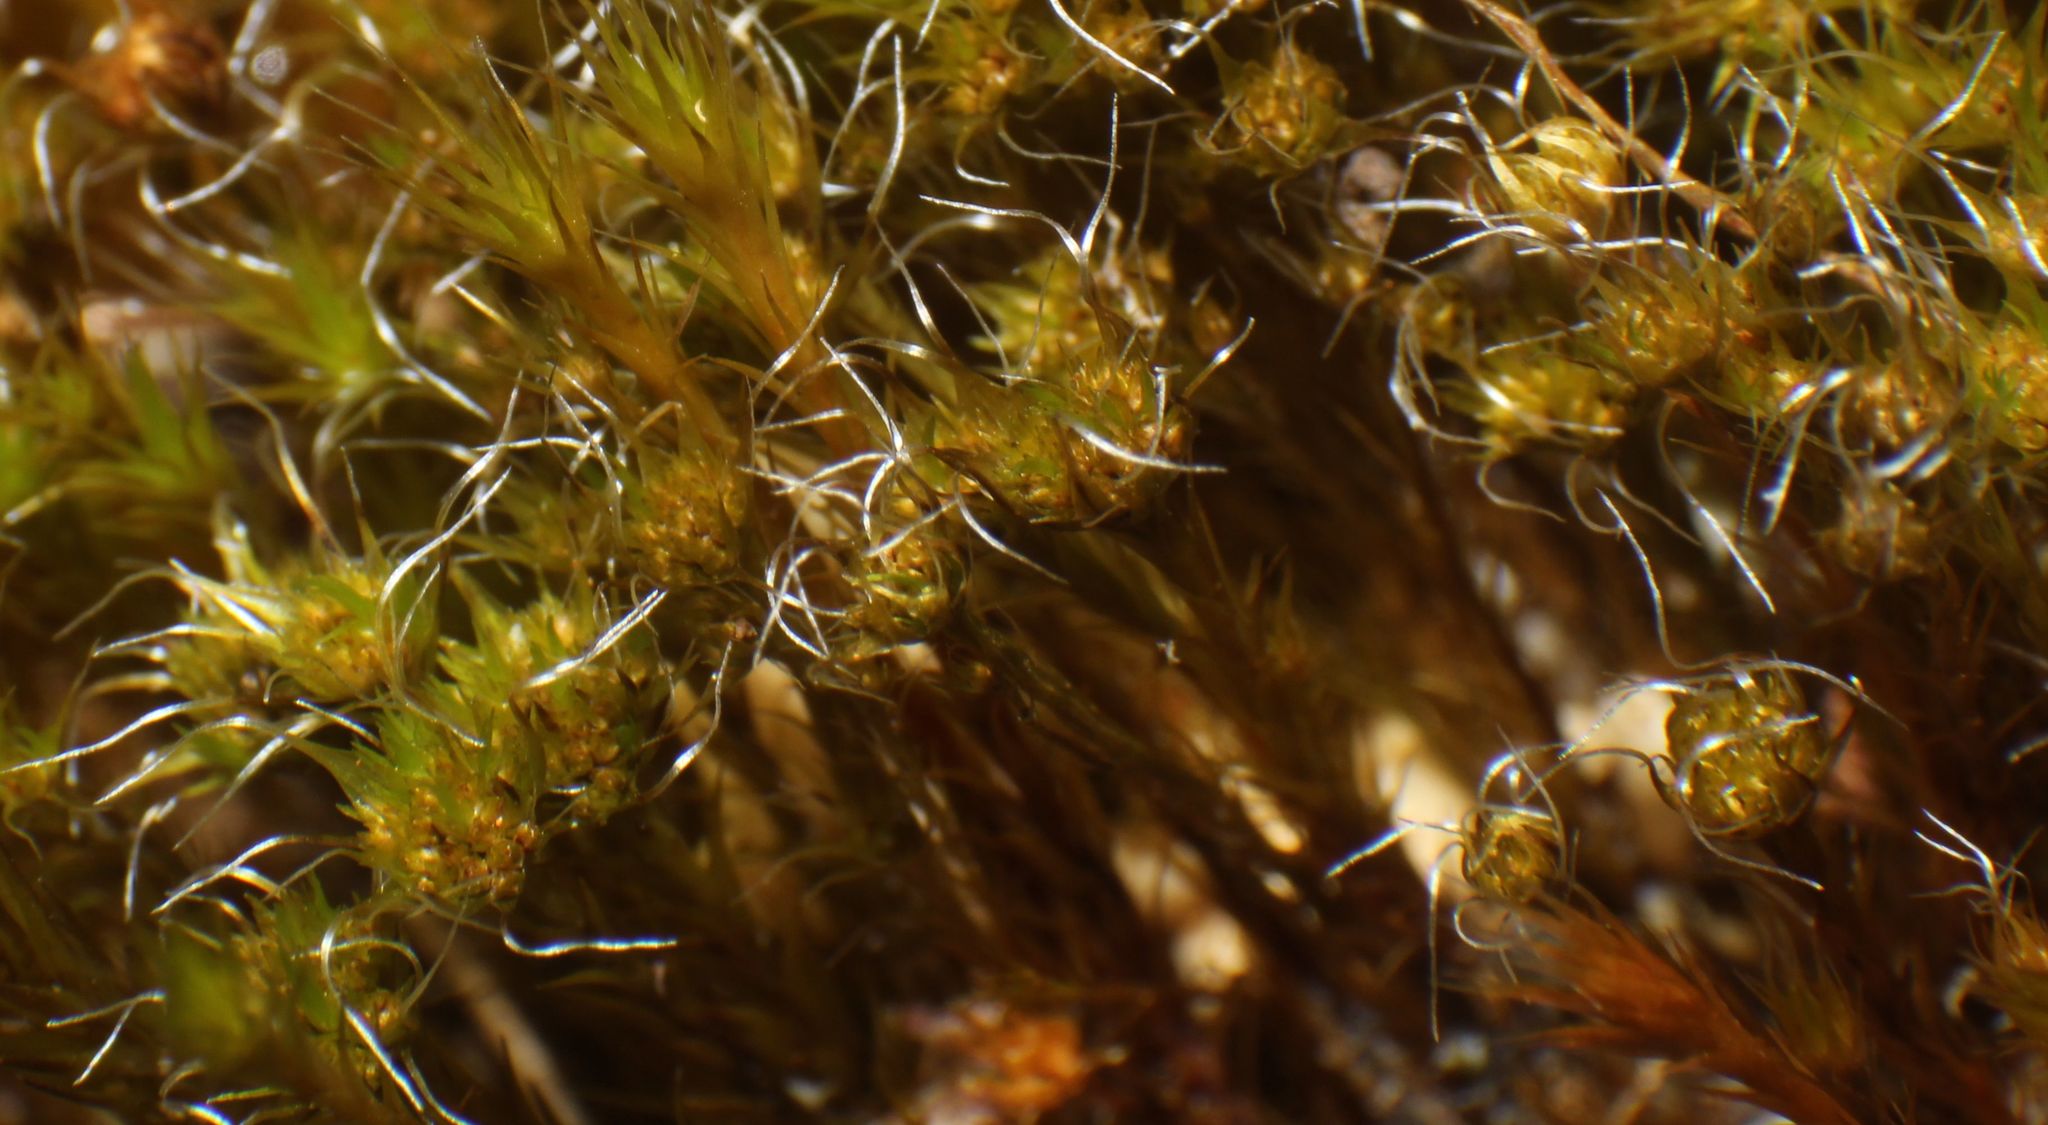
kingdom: Plantae
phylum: Bryophyta
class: Bryopsida
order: Dicranales
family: Leucobryaceae
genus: Campylopus
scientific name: Campylopus introflexus
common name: Heath star moss
